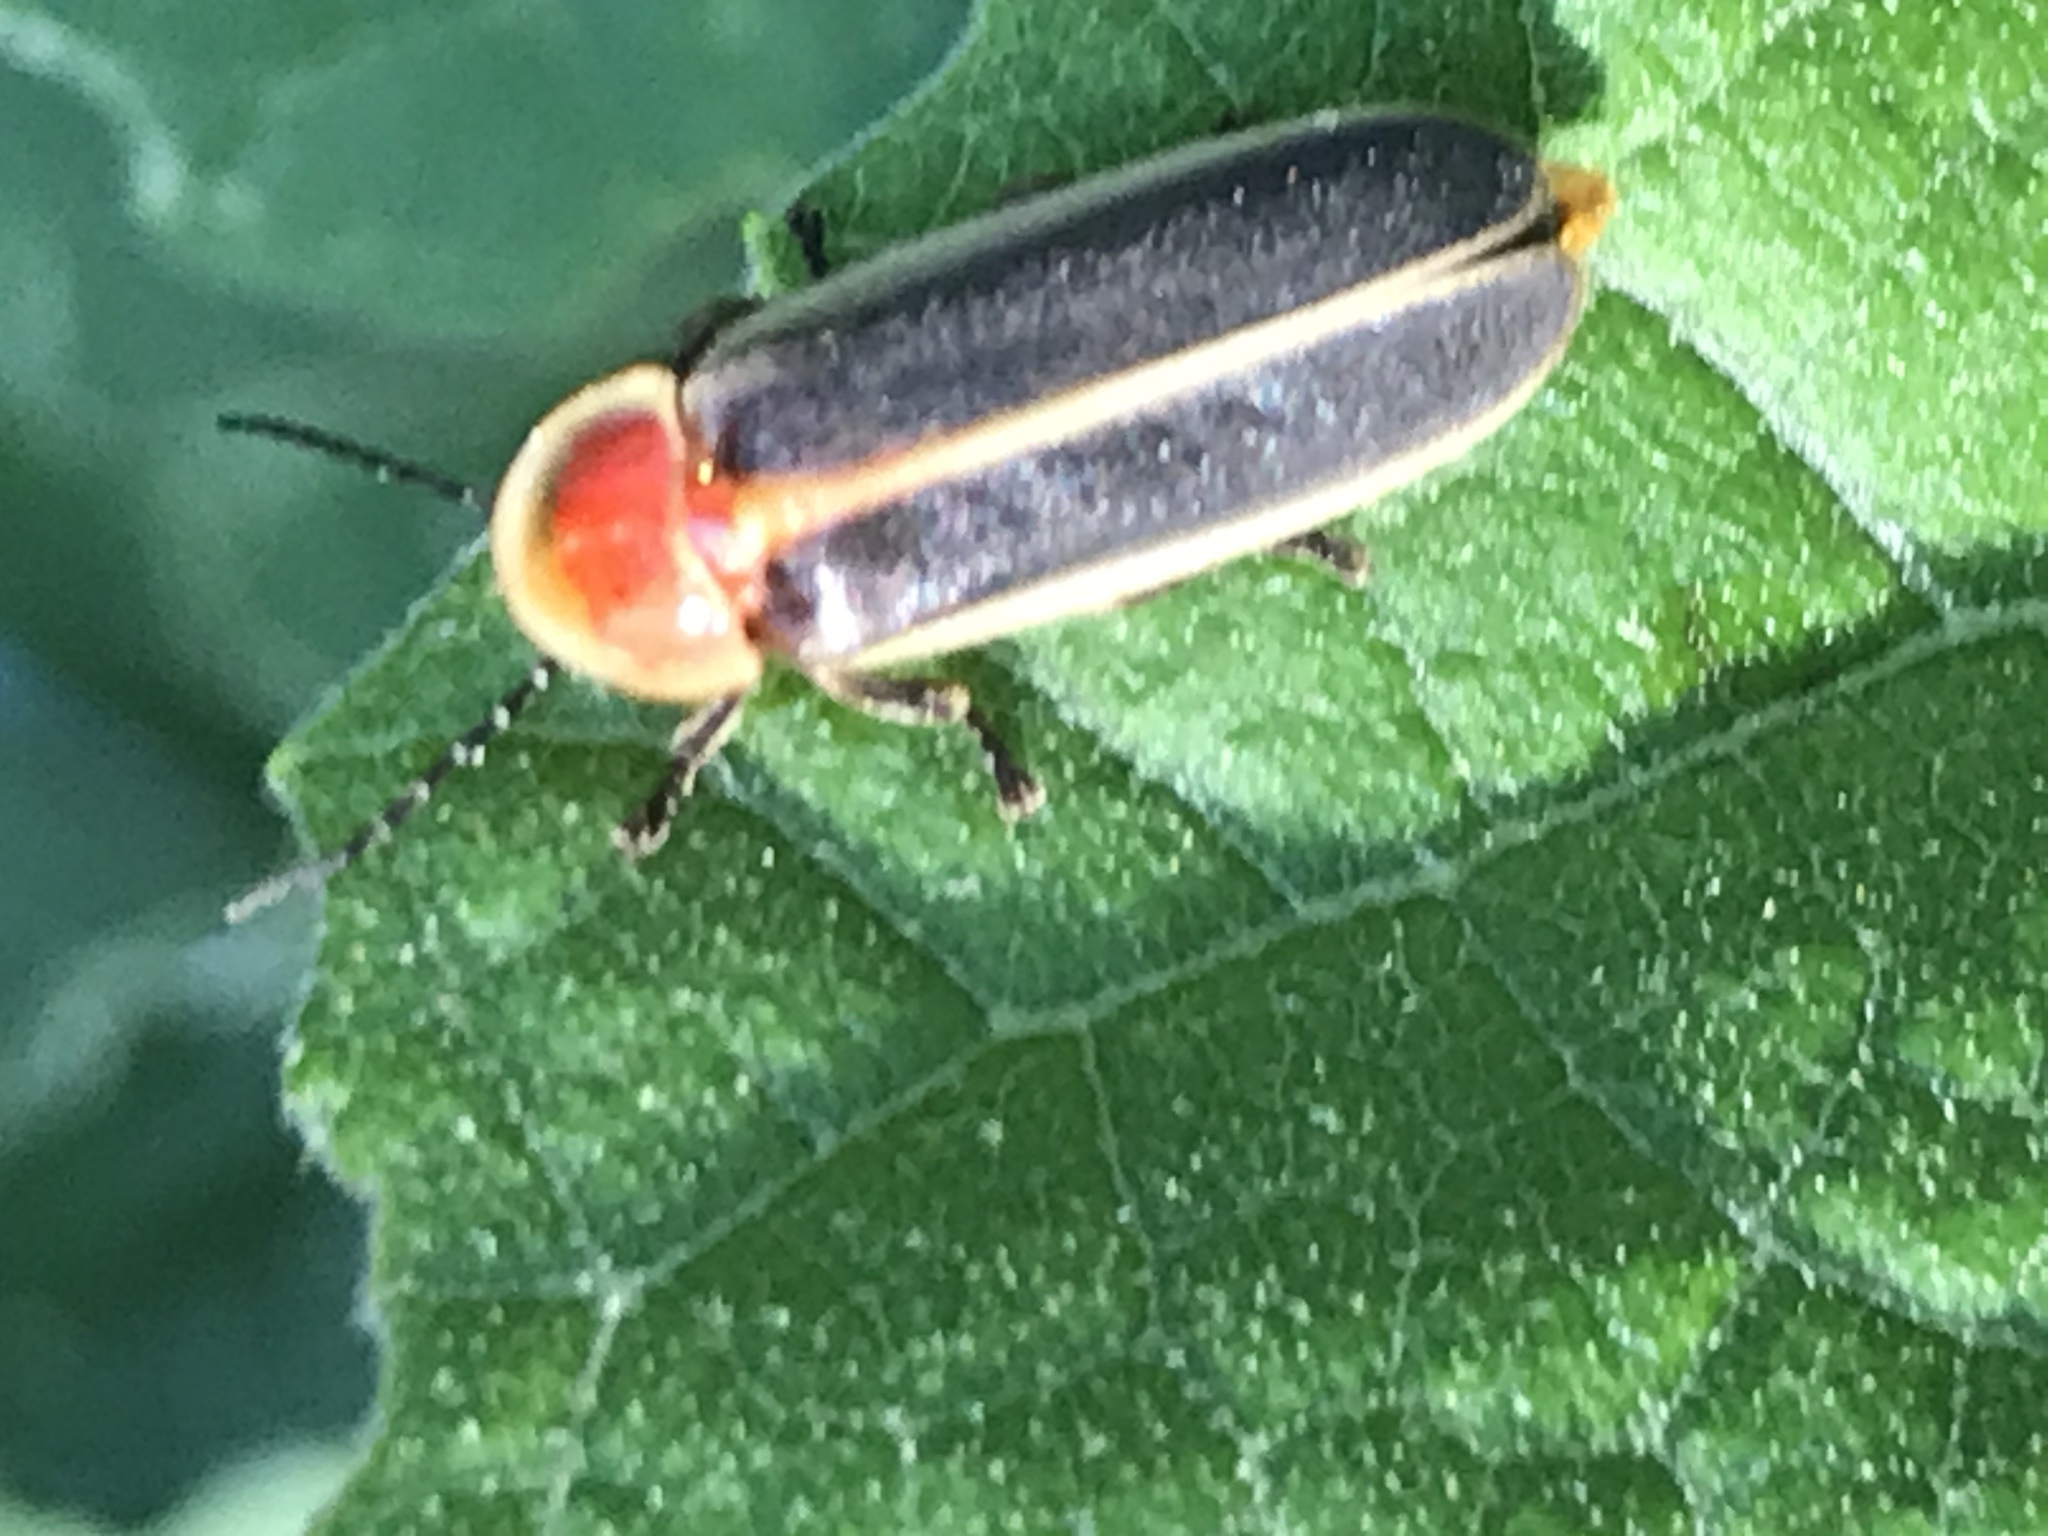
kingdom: Animalia
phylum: Arthropoda
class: Insecta
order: Coleoptera
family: Lampyridae
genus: Photinus
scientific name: Photinus pyralis
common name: Big dipper firefly
